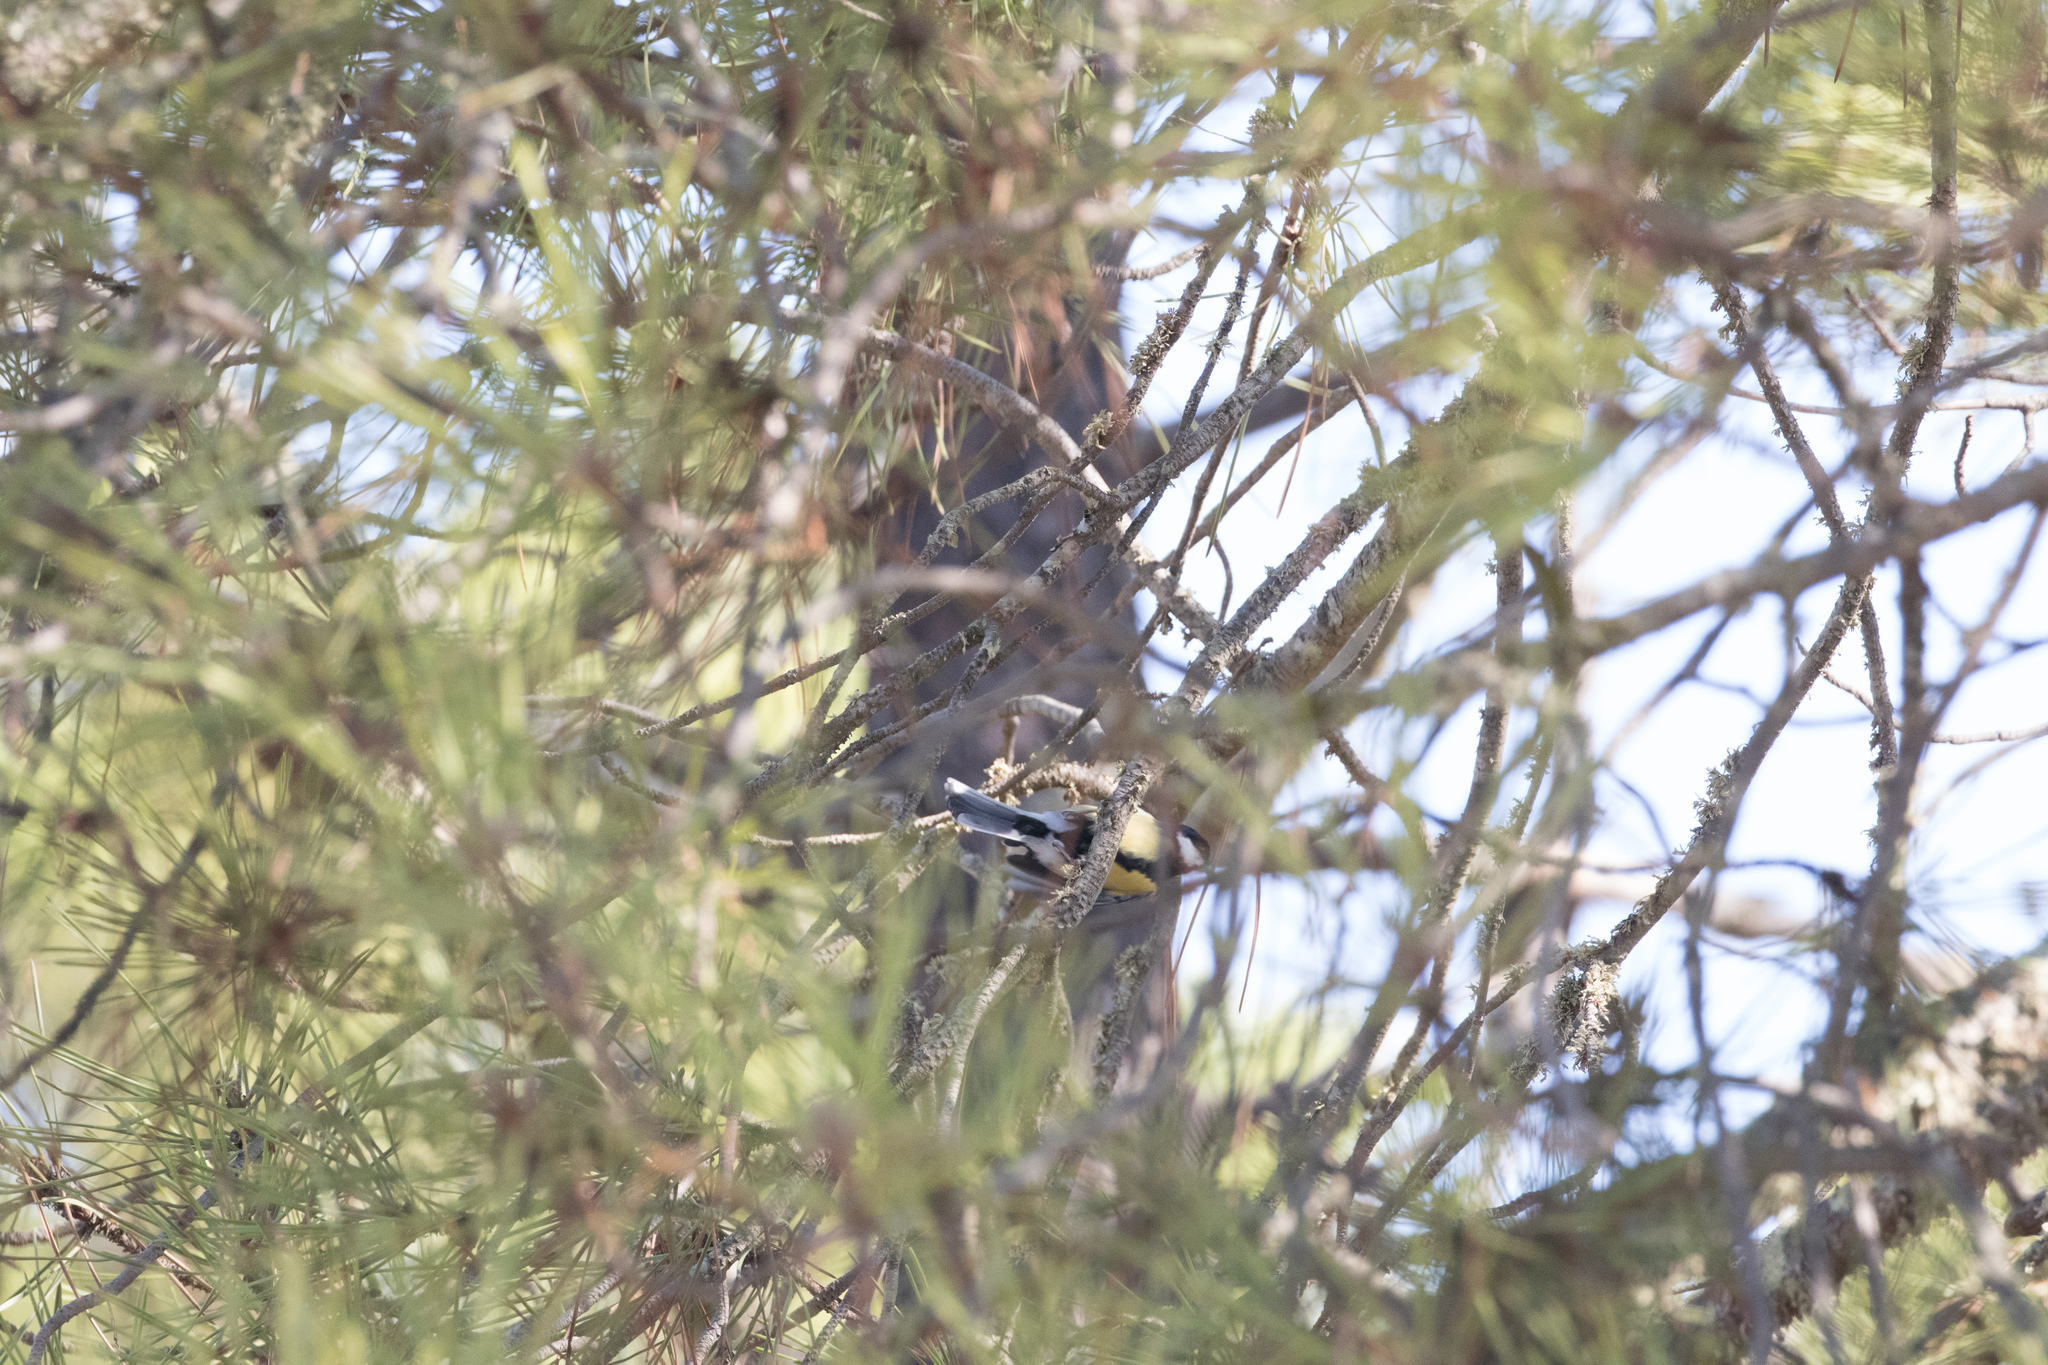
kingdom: Animalia
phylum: Chordata
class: Aves
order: Passeriformes
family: Paridae
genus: Parus
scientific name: Parus major
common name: Great tit
